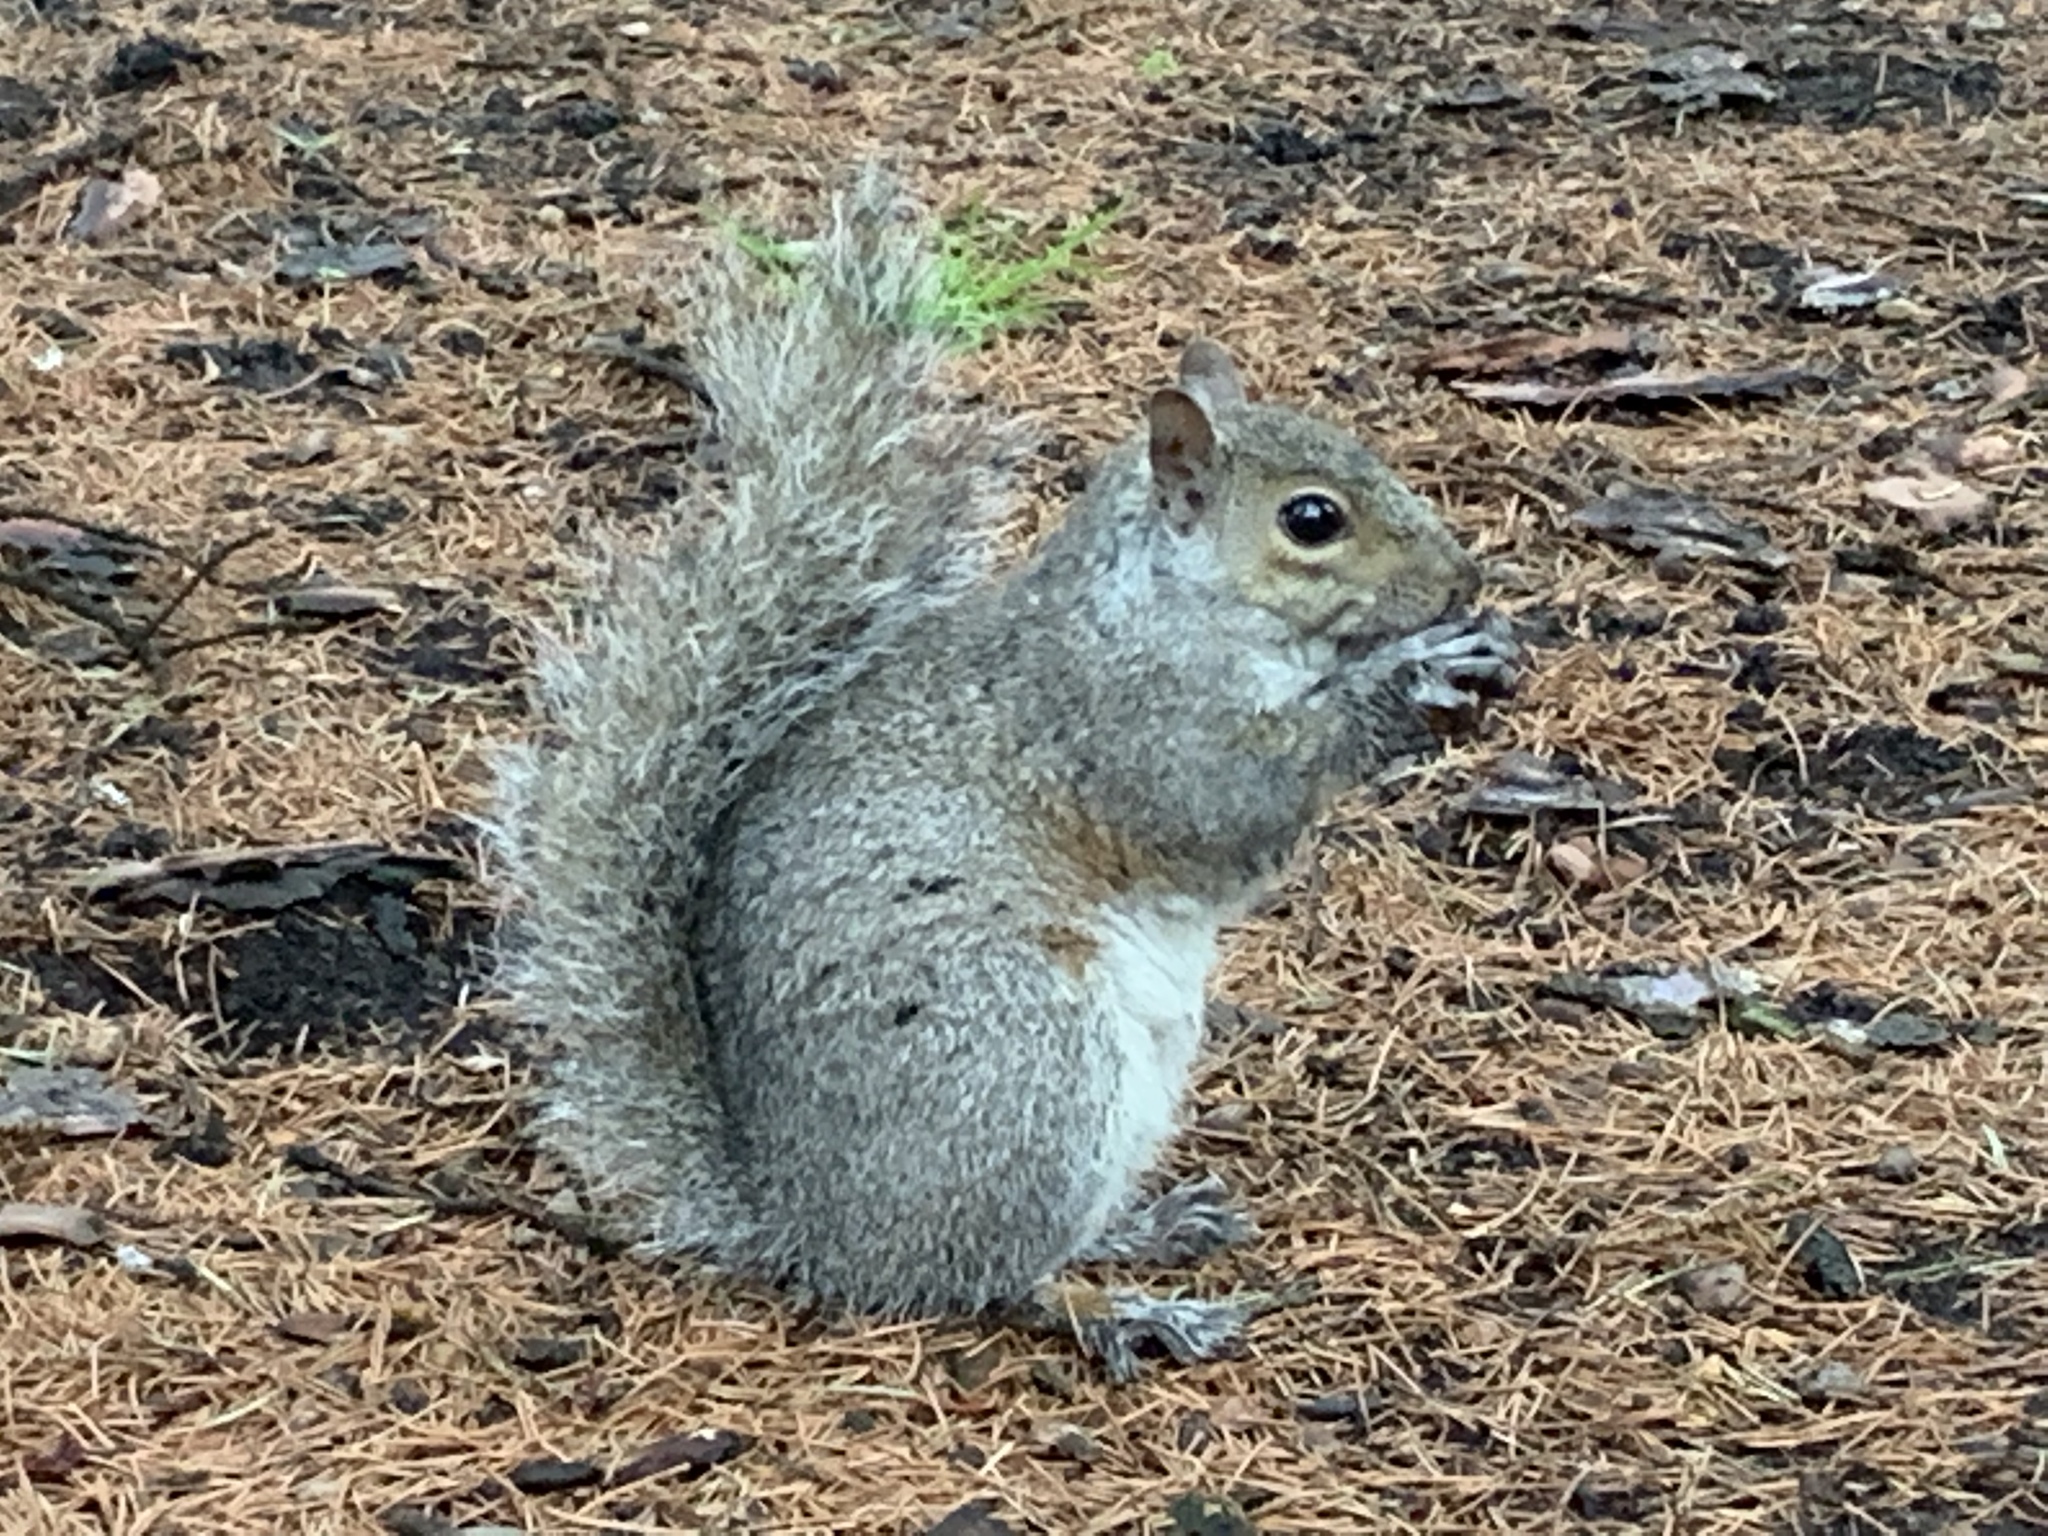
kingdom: Animalia
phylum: Chordata
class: Mammalia
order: Rodentia
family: Sciuridae
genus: Sciurus
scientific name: Sciurus carolinensis
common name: Eastern gray squirrel
